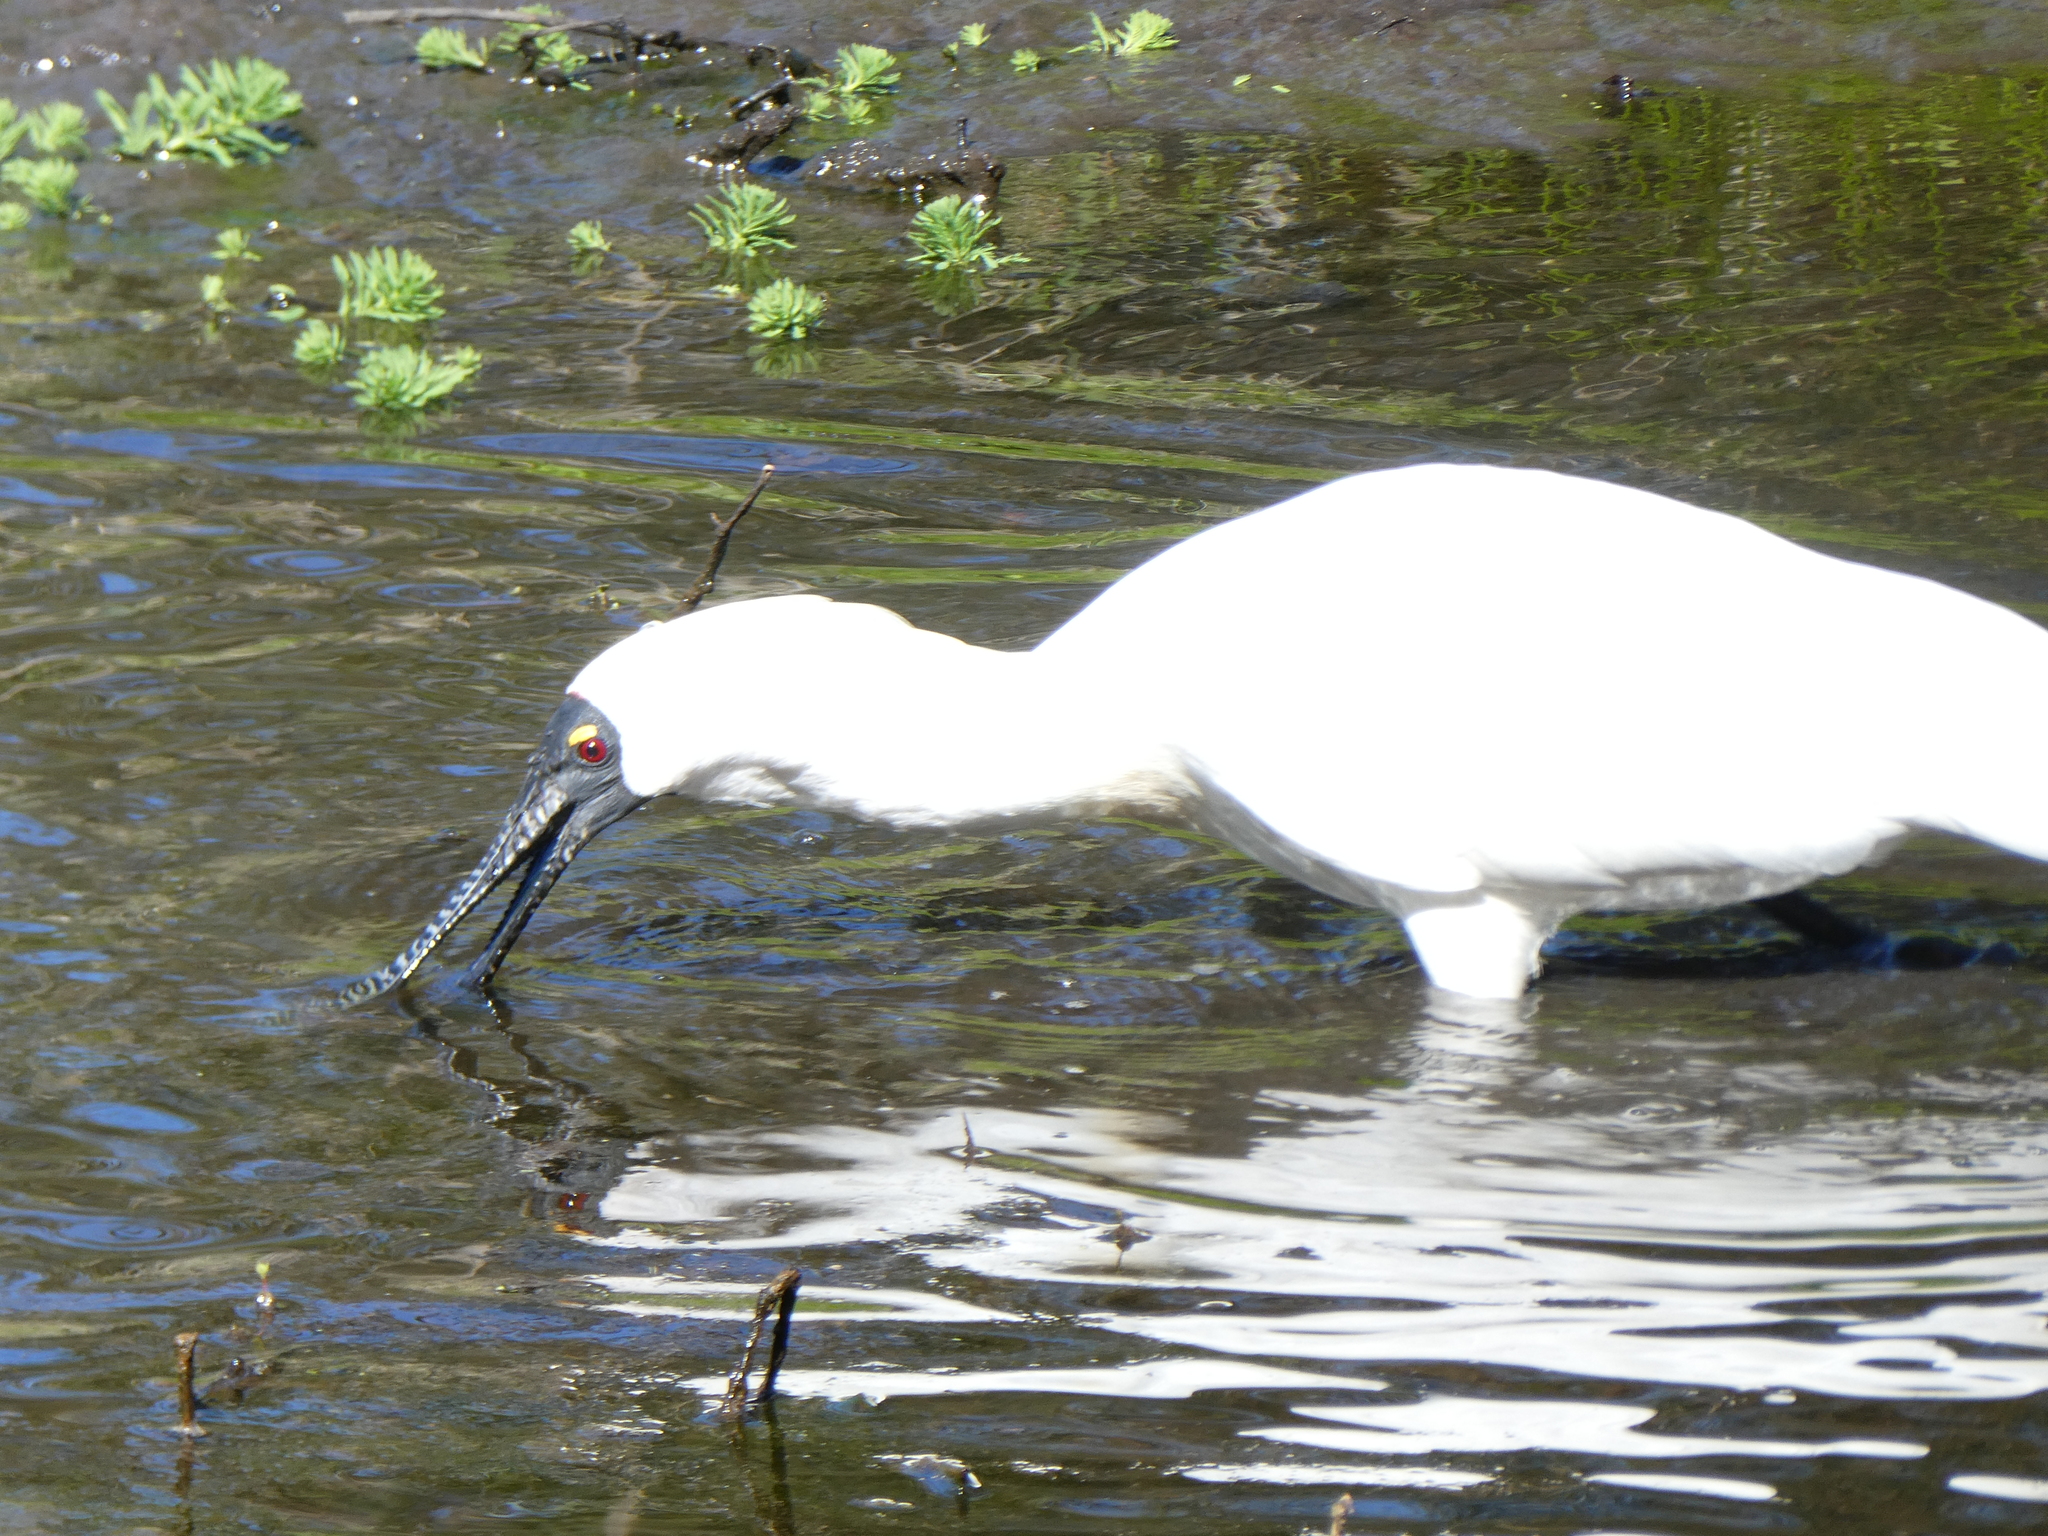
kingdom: Animalia
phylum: Chordata
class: Aves
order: Pelecaniformes
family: Threskiornithidae
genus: Platalea
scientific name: Platalea regia
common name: Royal spoonbill
